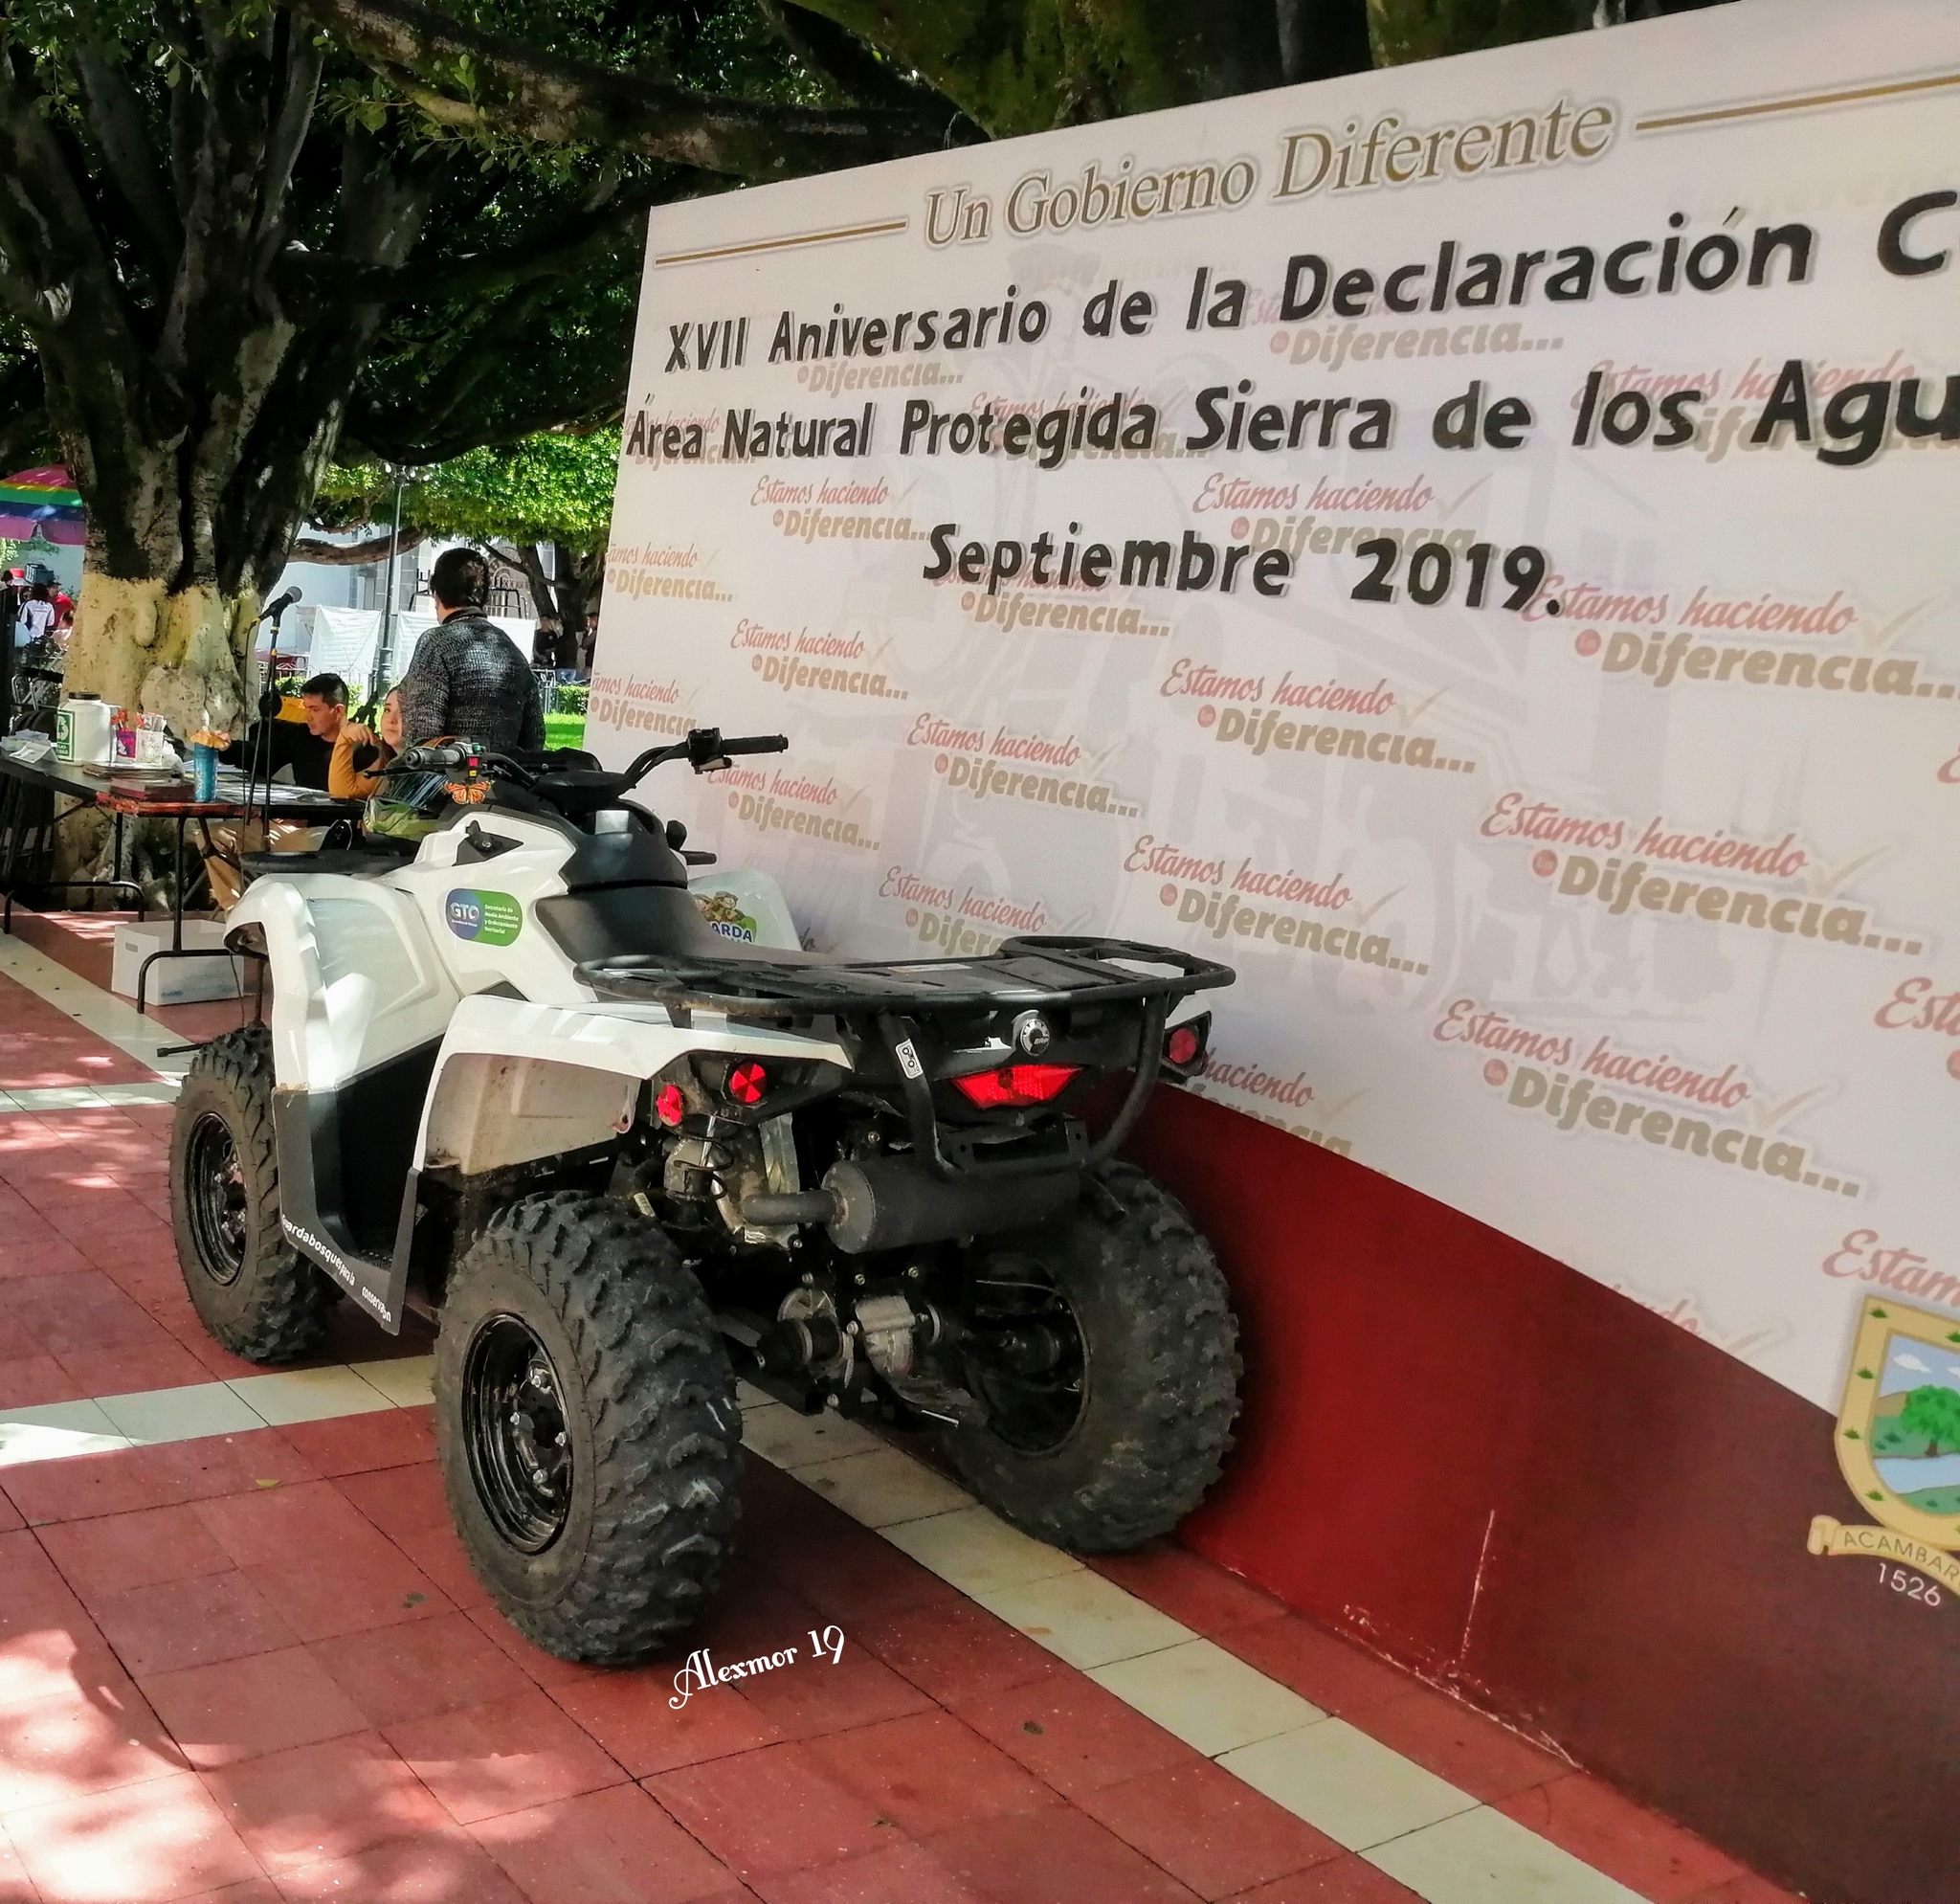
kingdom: Animalia
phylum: Arthropoda
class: Insecta
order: Lepidoptera
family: Nymphalidae
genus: Danaus
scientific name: Danaus plexippus
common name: Monarch
